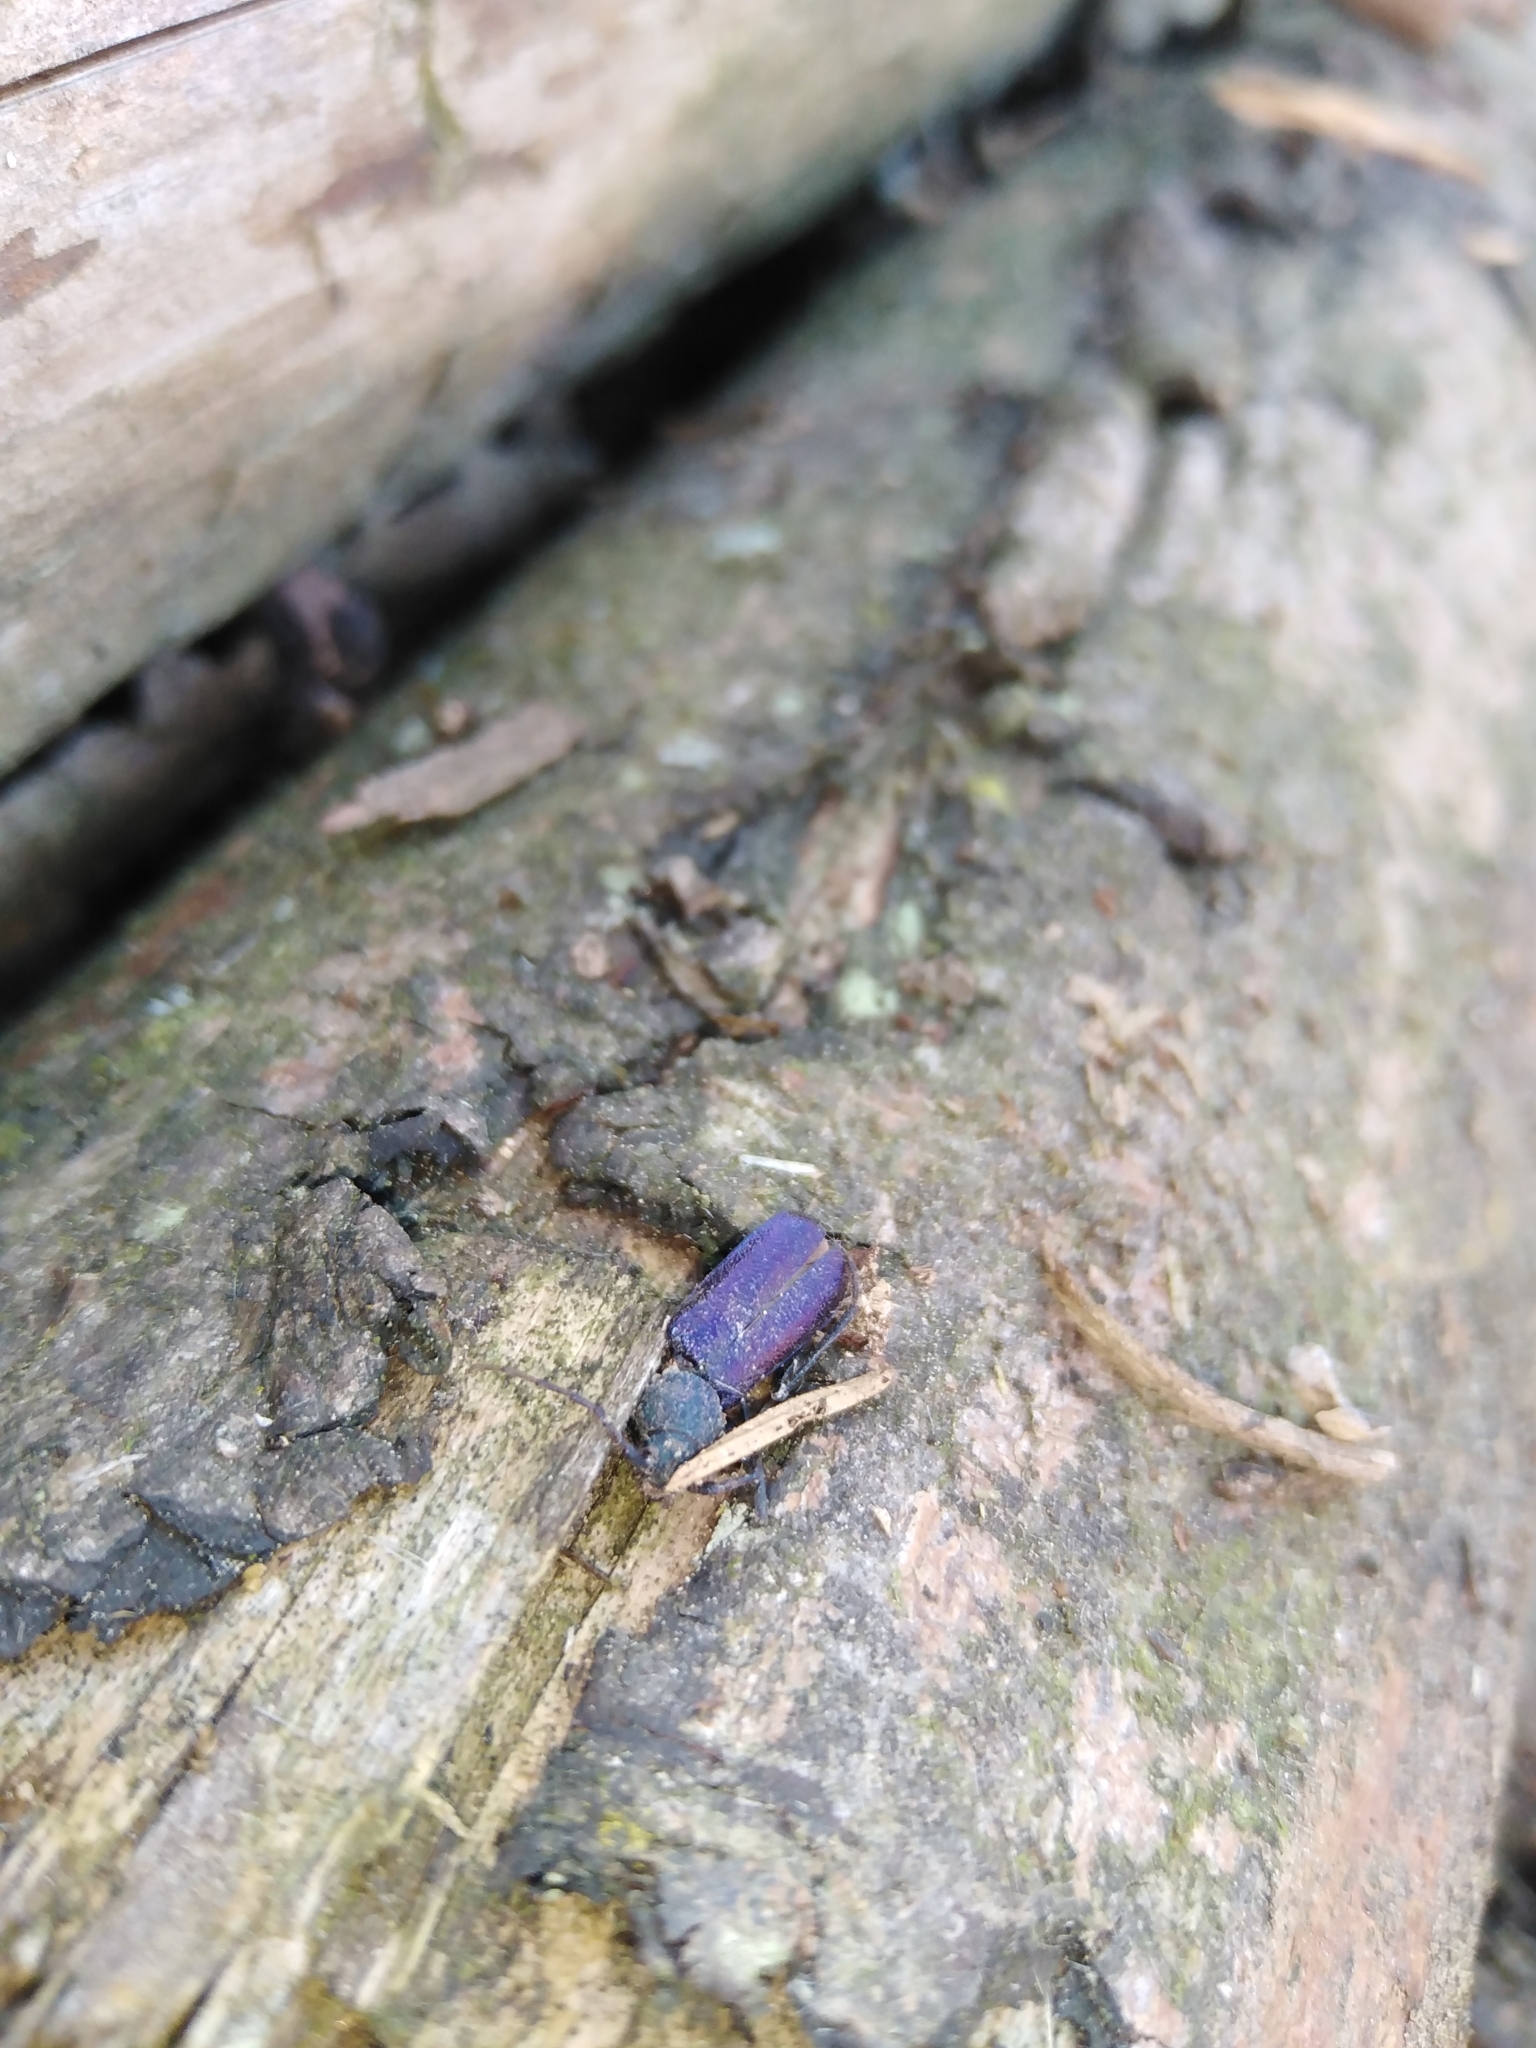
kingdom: Animalia
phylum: Arthropoda
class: Insecta
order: Coleoptera
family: Cerambycidae
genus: Callidium
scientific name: Callidium violaceum
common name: Violet tanbark beetle
